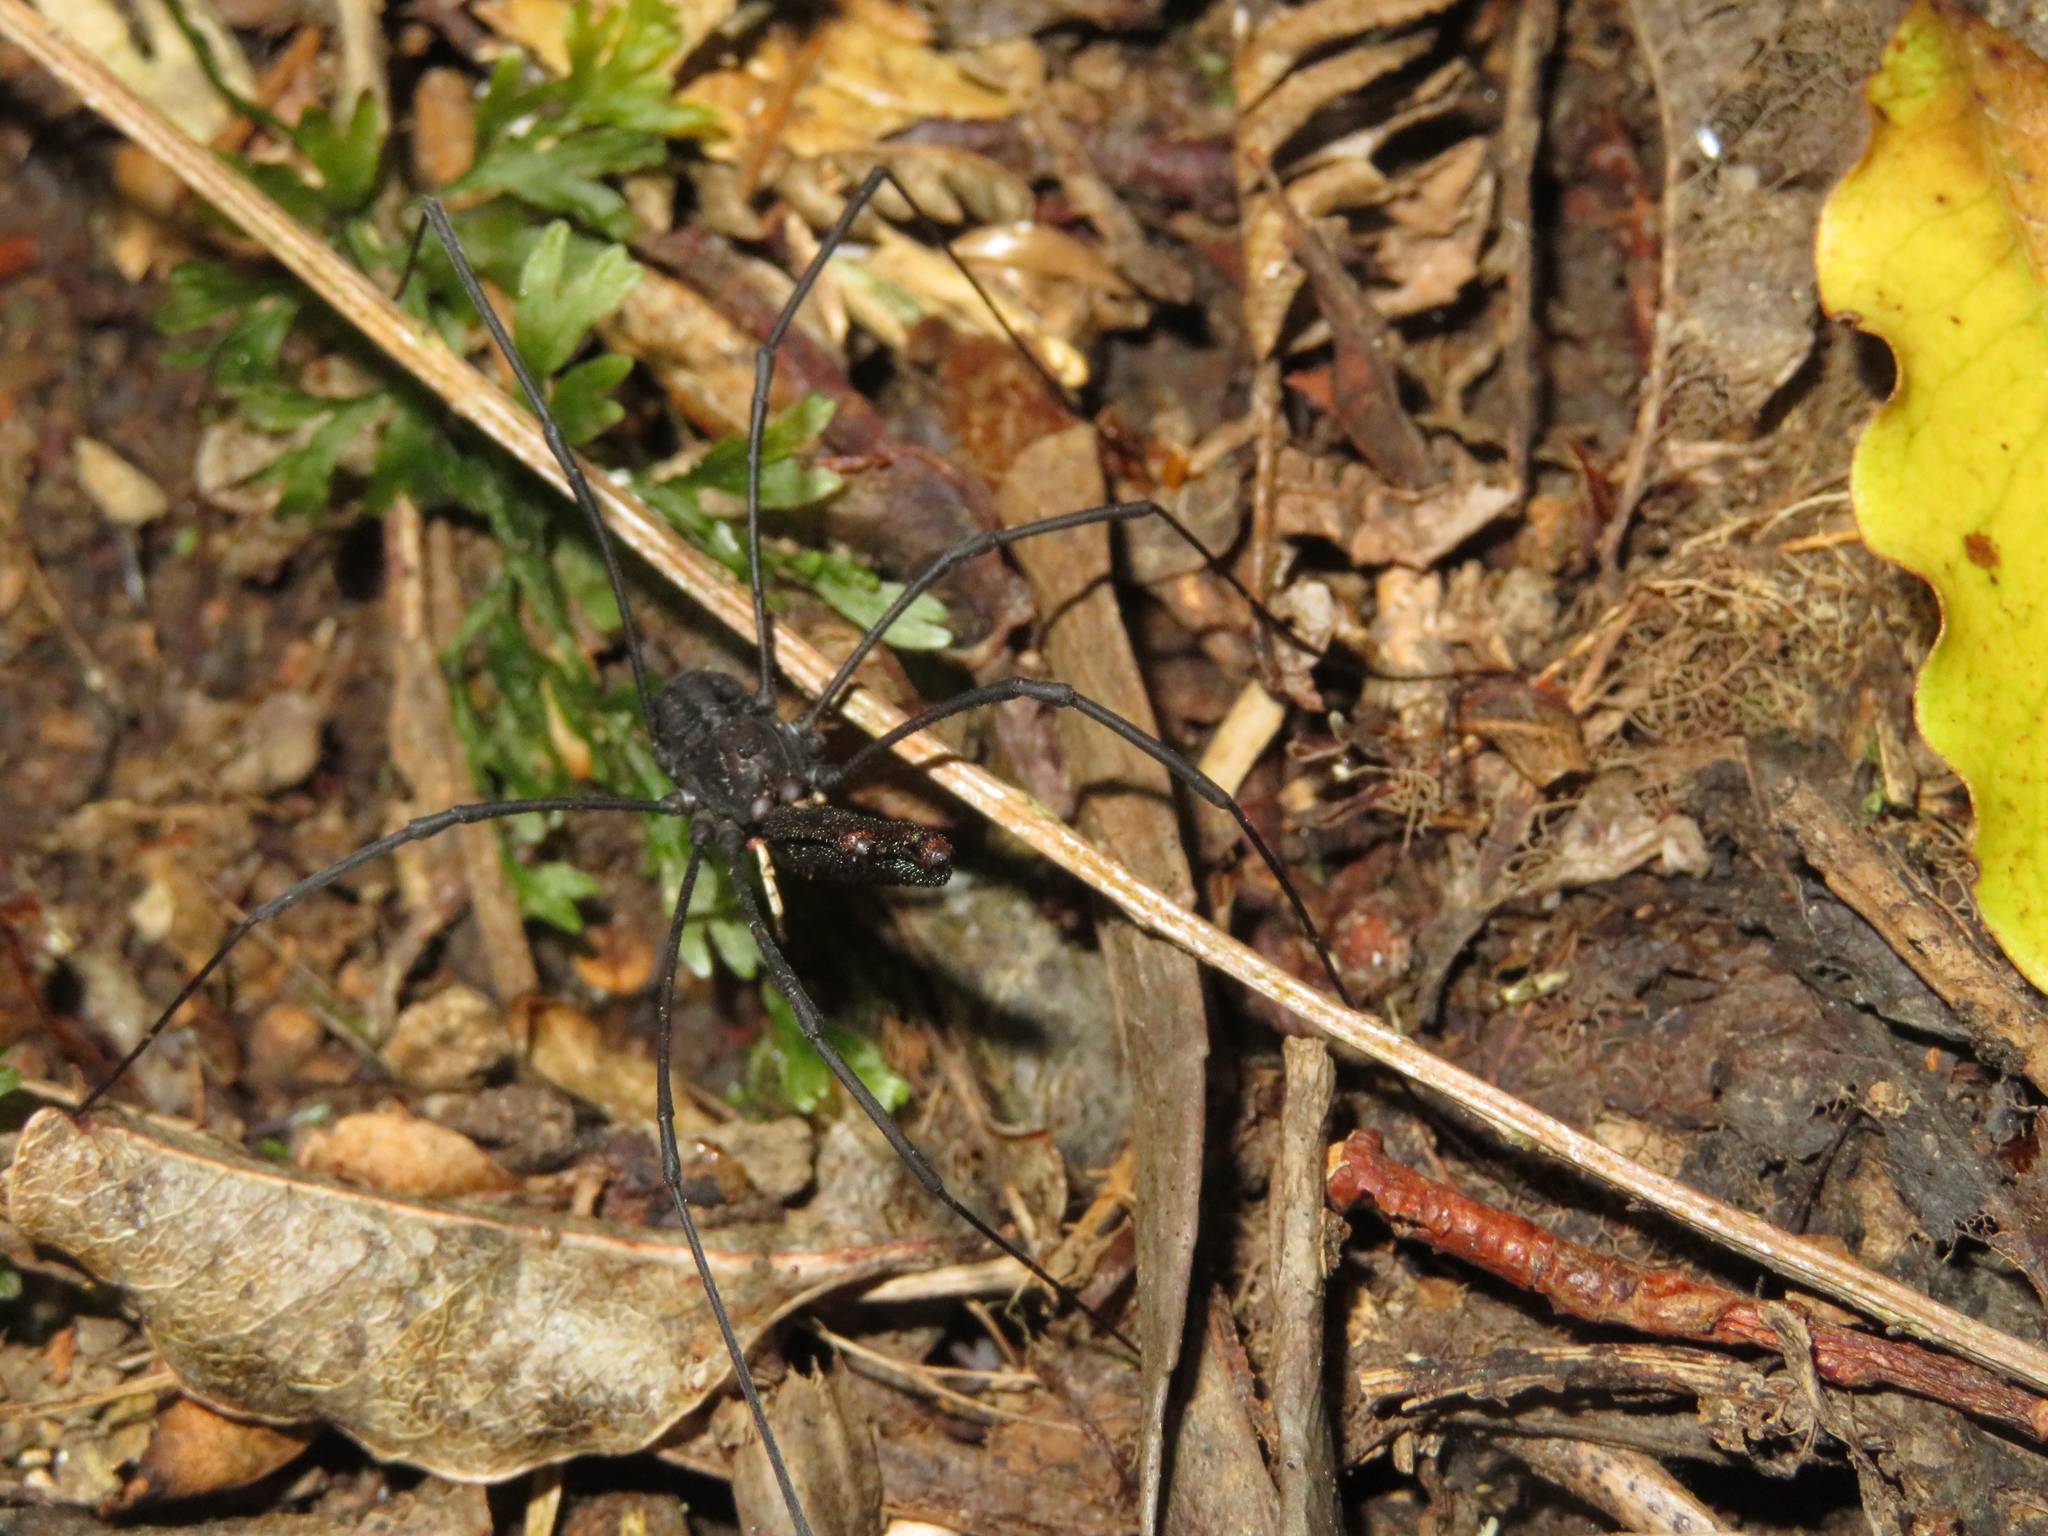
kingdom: Animalia
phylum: Arthropoda
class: Arachnida
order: Opiliones
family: Neopilionidae
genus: Forsteropsalis
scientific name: Forsteropsalis inconstans
